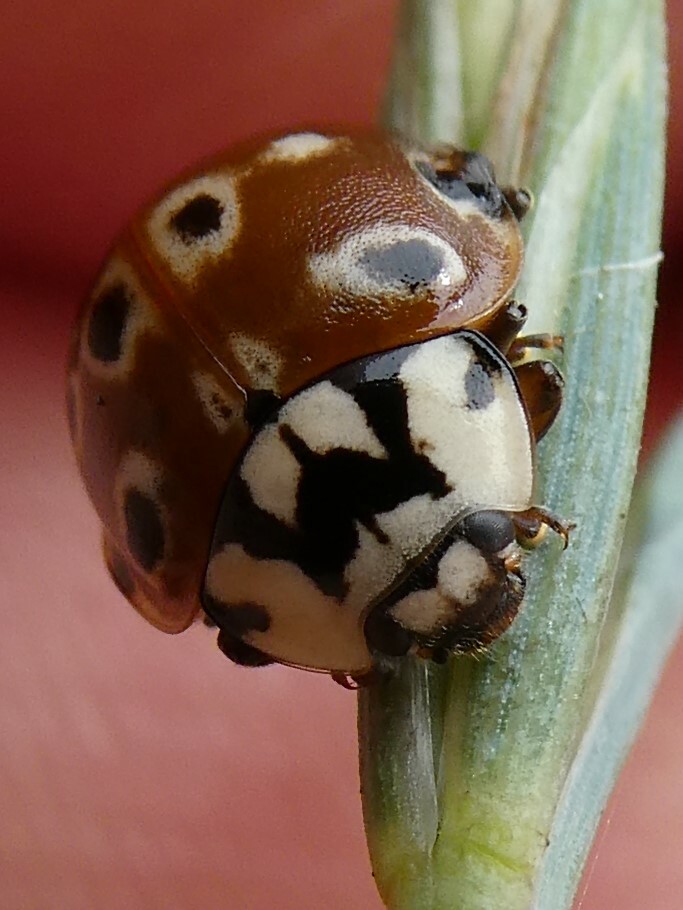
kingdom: Animalia
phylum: Arthropoda
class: Insecta
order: Coleoptera
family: Coccinellidae
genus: Anatis
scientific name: Anatis mali
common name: Eye-spotted lady beetle
